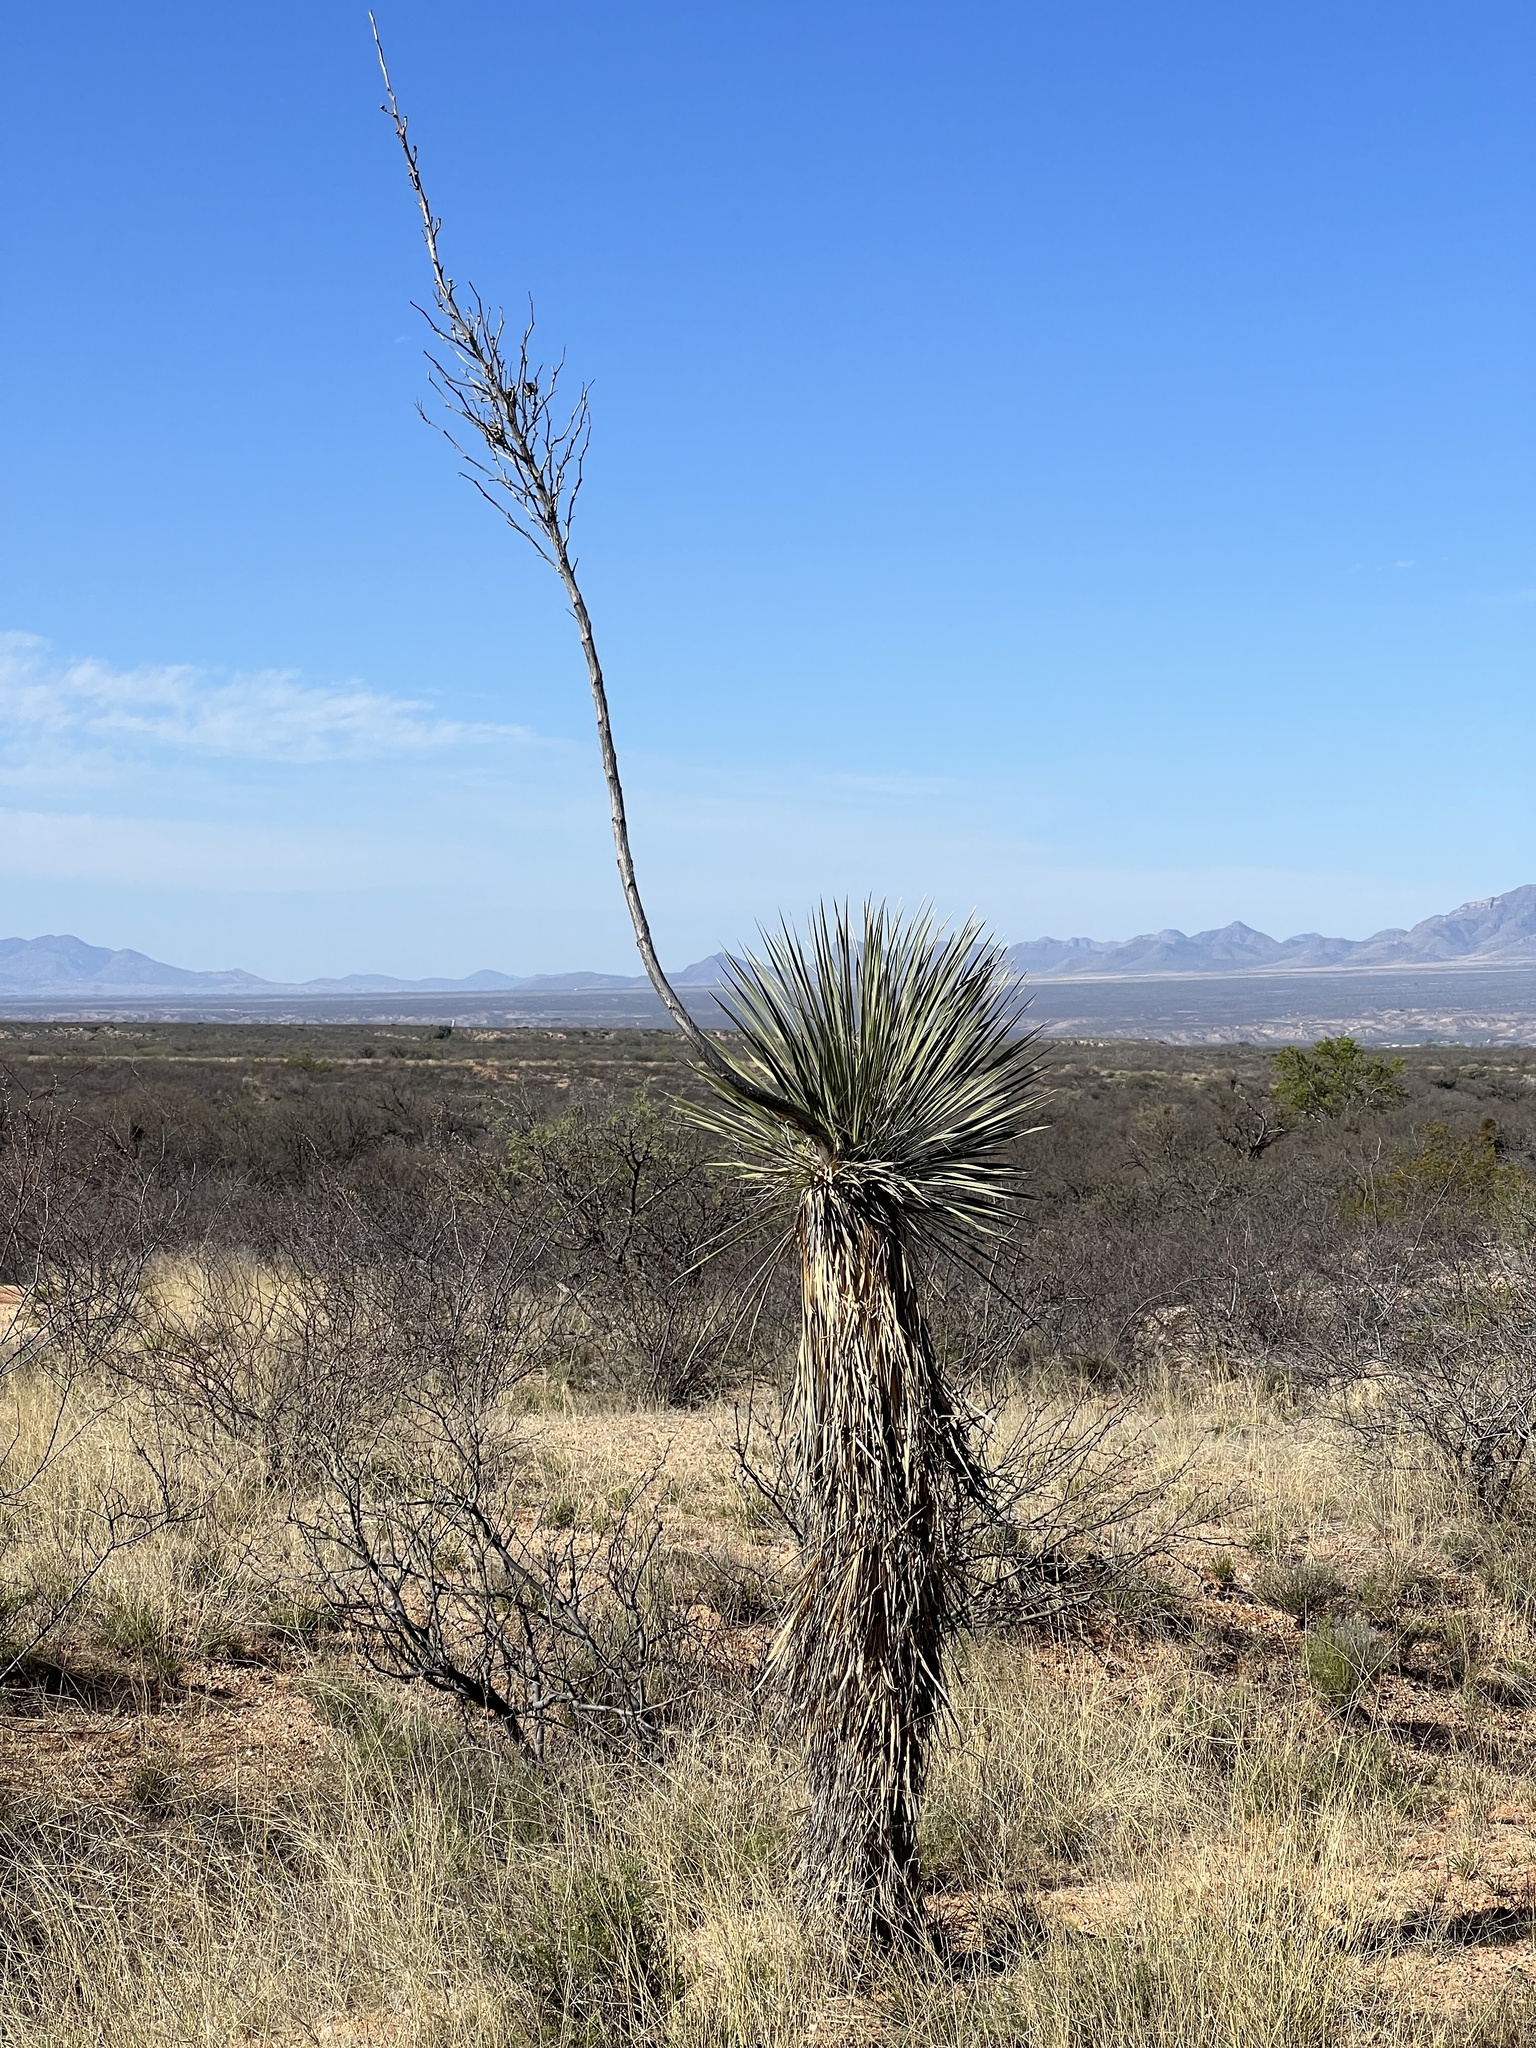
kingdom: Plantae
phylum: Tracheophyta
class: Liliopsida
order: Asparagales
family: Asparagaceae
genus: Yucca
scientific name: Yucca elata
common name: Palmella
